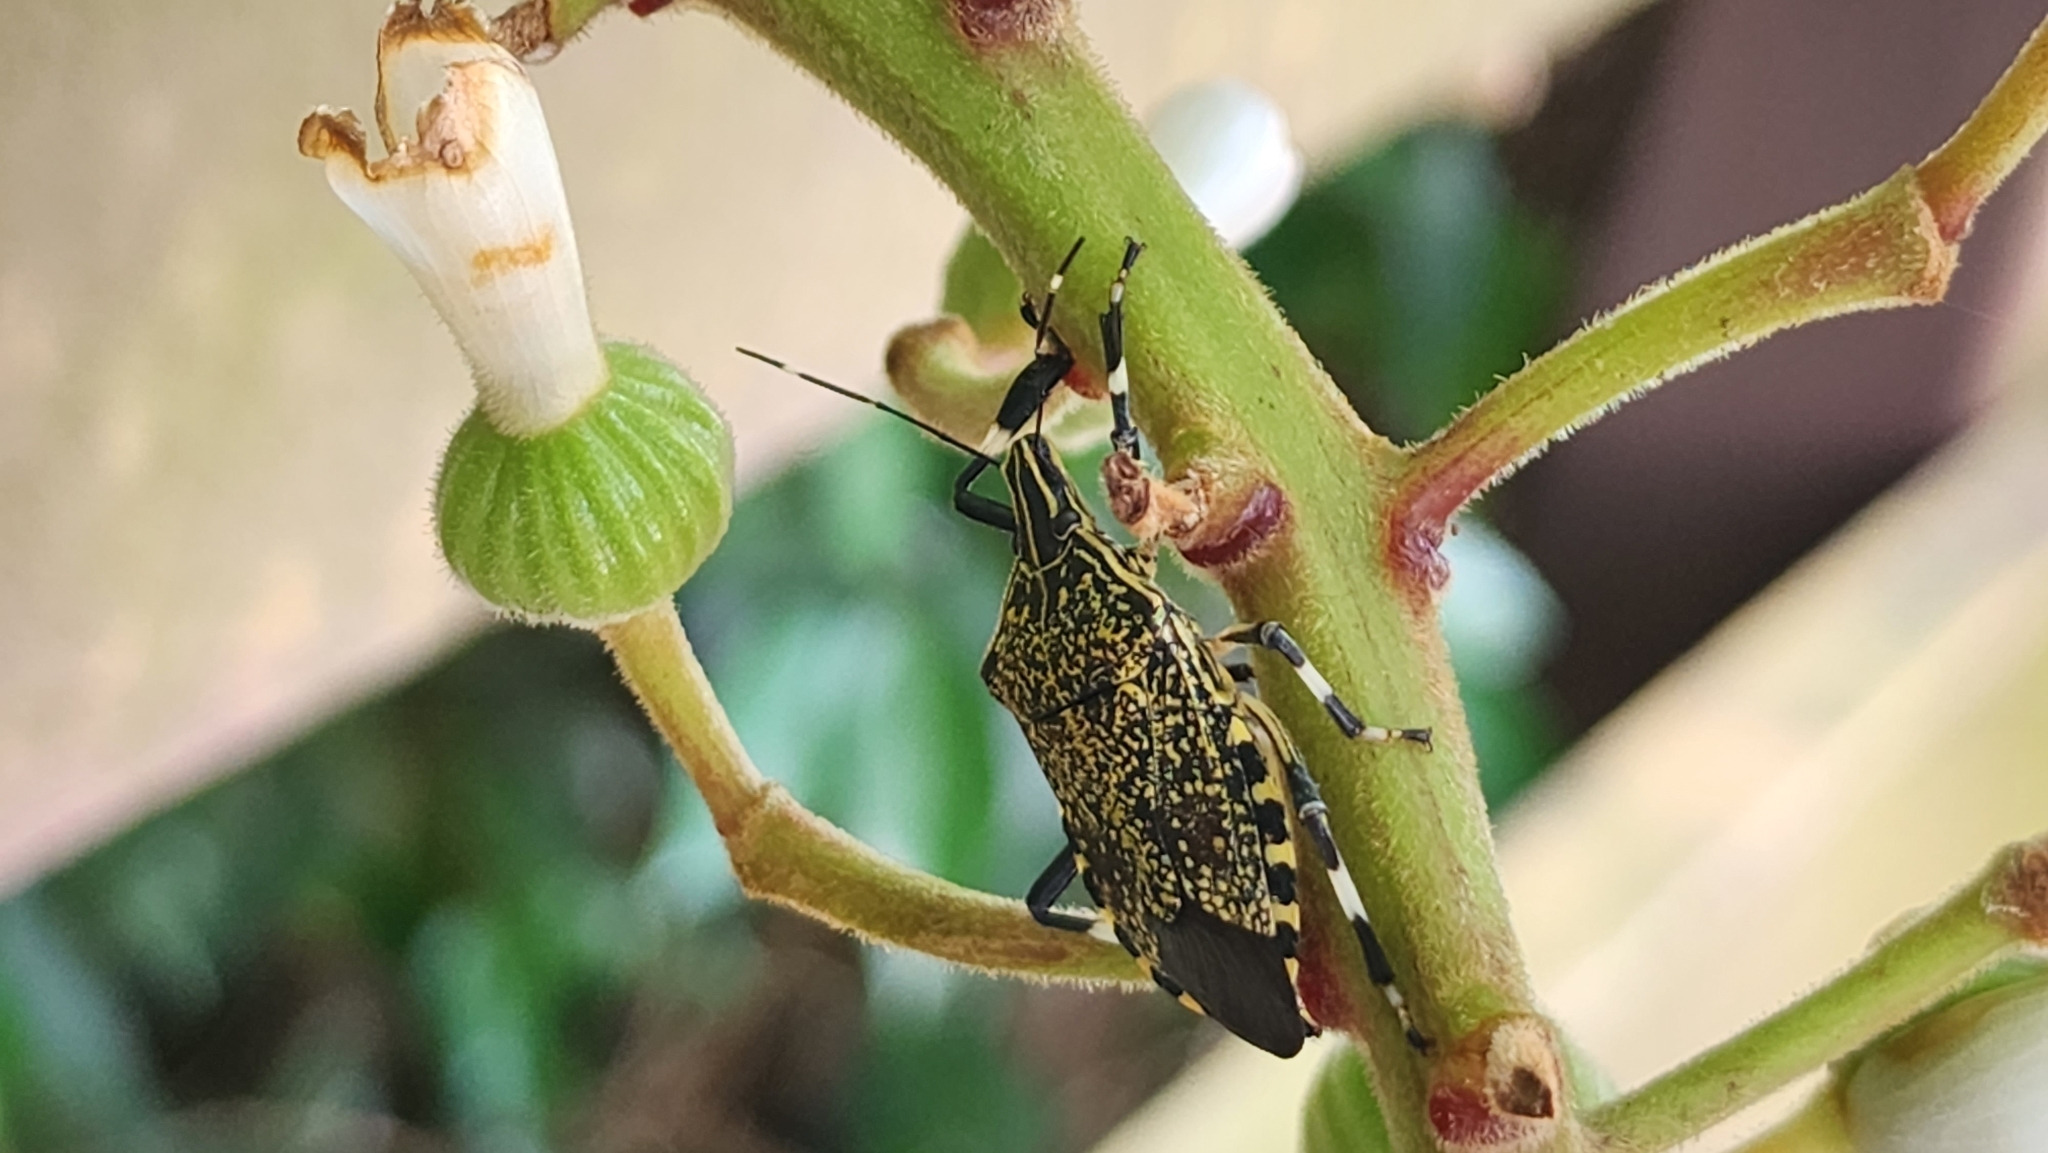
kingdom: Animalia
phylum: Arthropoda
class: Insecta
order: Hemiptera
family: Pentatomidae
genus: Erthesina
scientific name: Erthesina fullo
